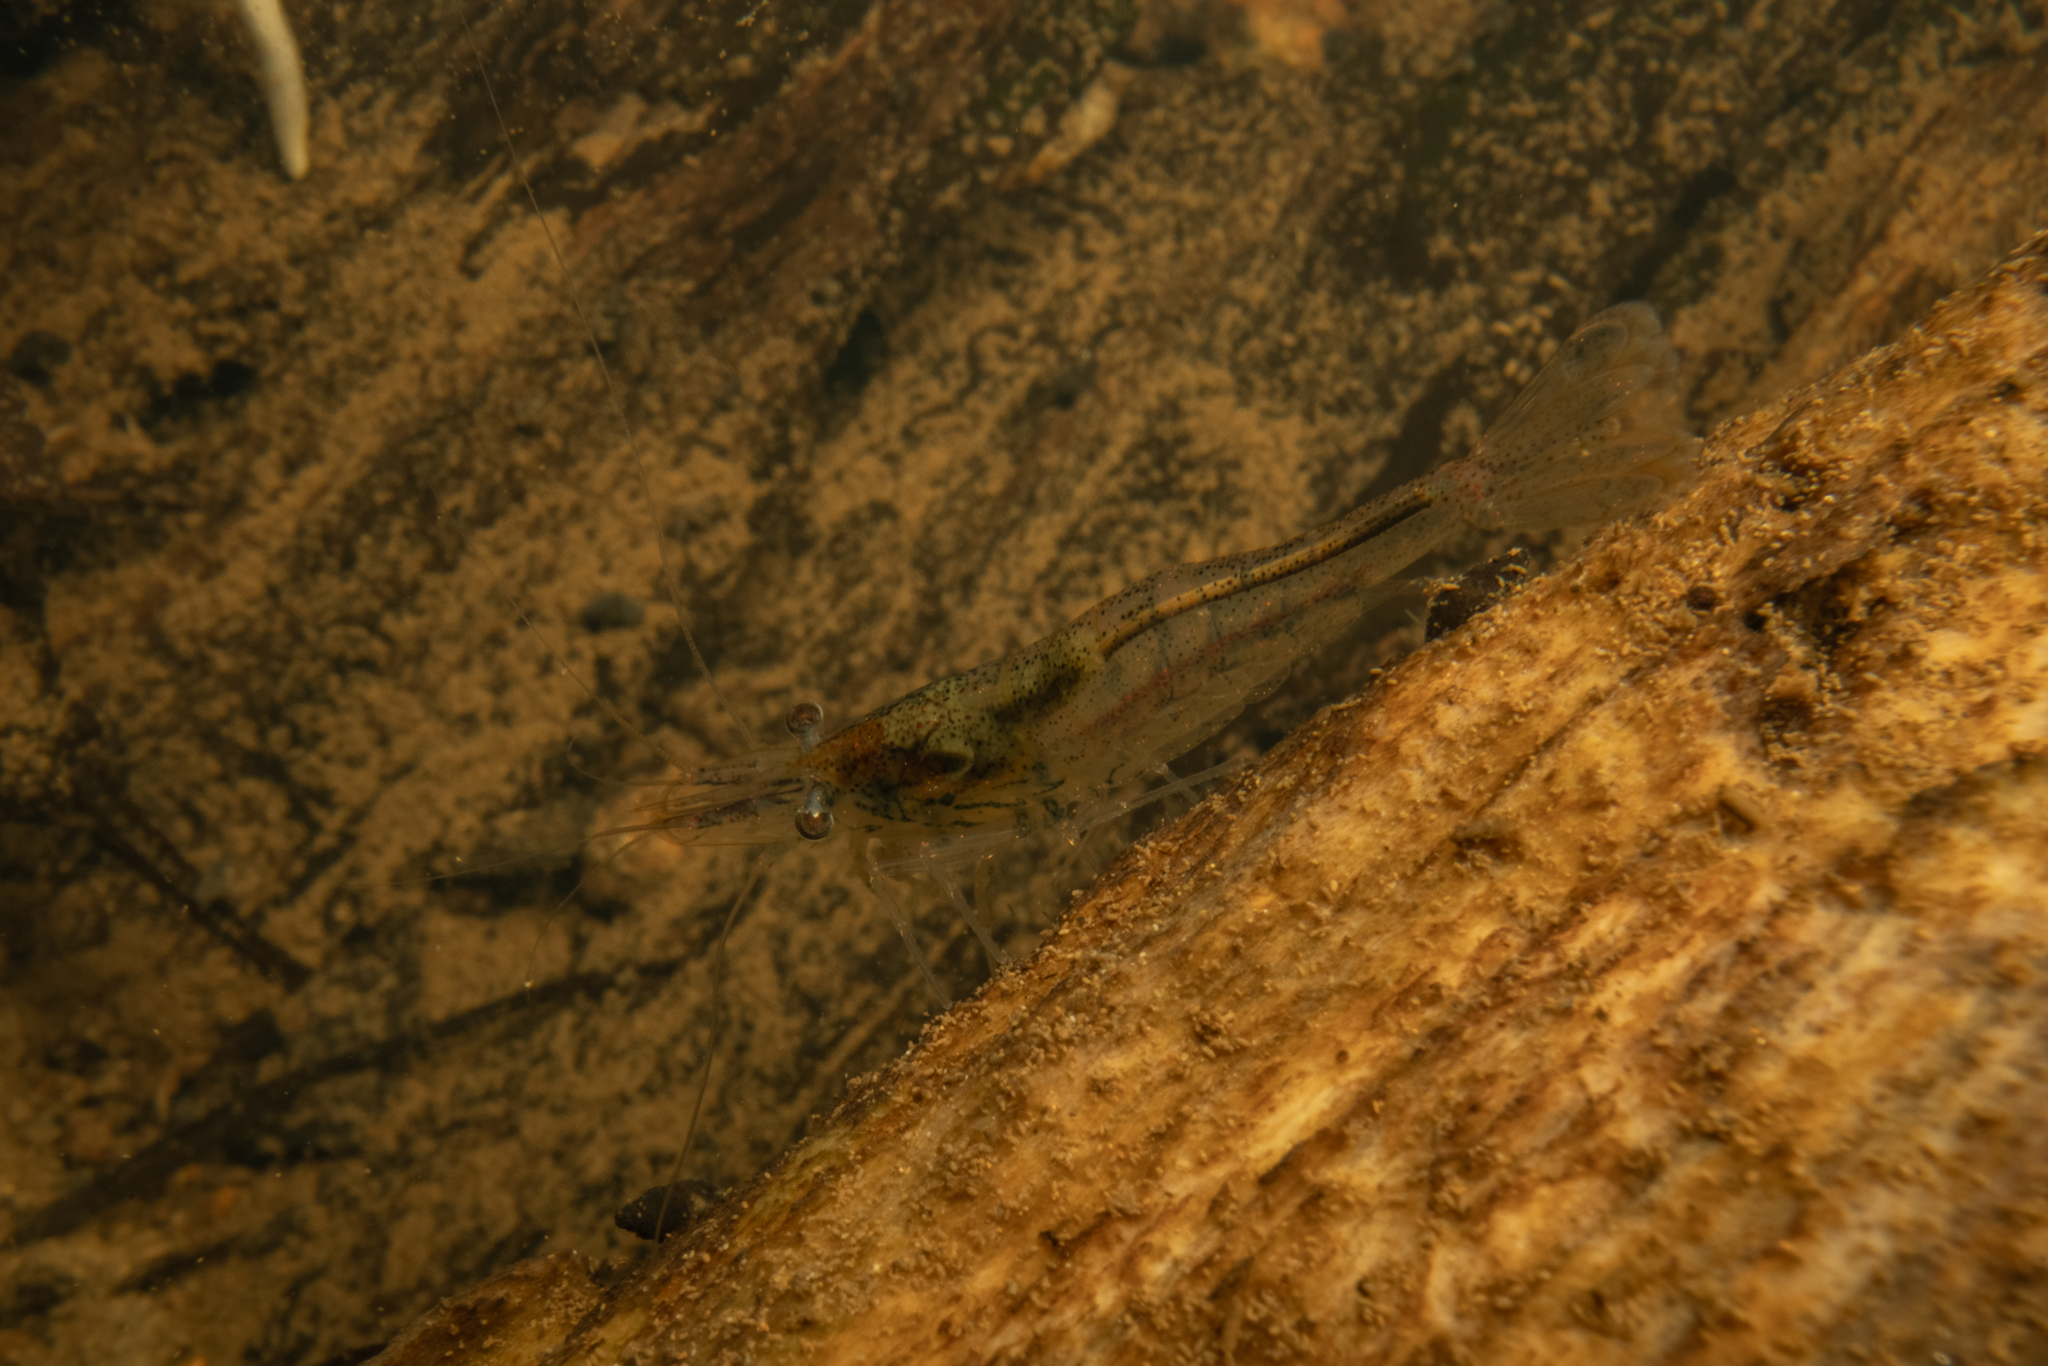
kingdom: Animalia
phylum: Arthropoda
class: Malacostraca
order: Decapoda
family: Atyidae
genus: Paratya
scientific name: Paratya curvirostris
